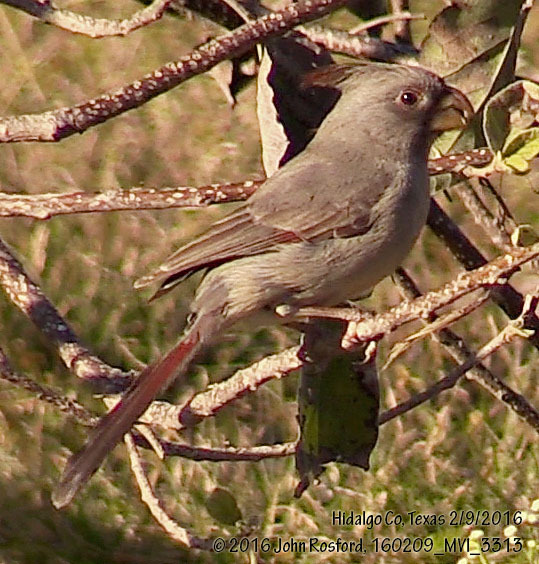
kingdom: Animalia
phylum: Chordata
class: Aves
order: Passeriformes
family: Cardinalidae
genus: Cardinalis
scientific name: Cardinalis sinuatus
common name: Pyrrhuloxia
